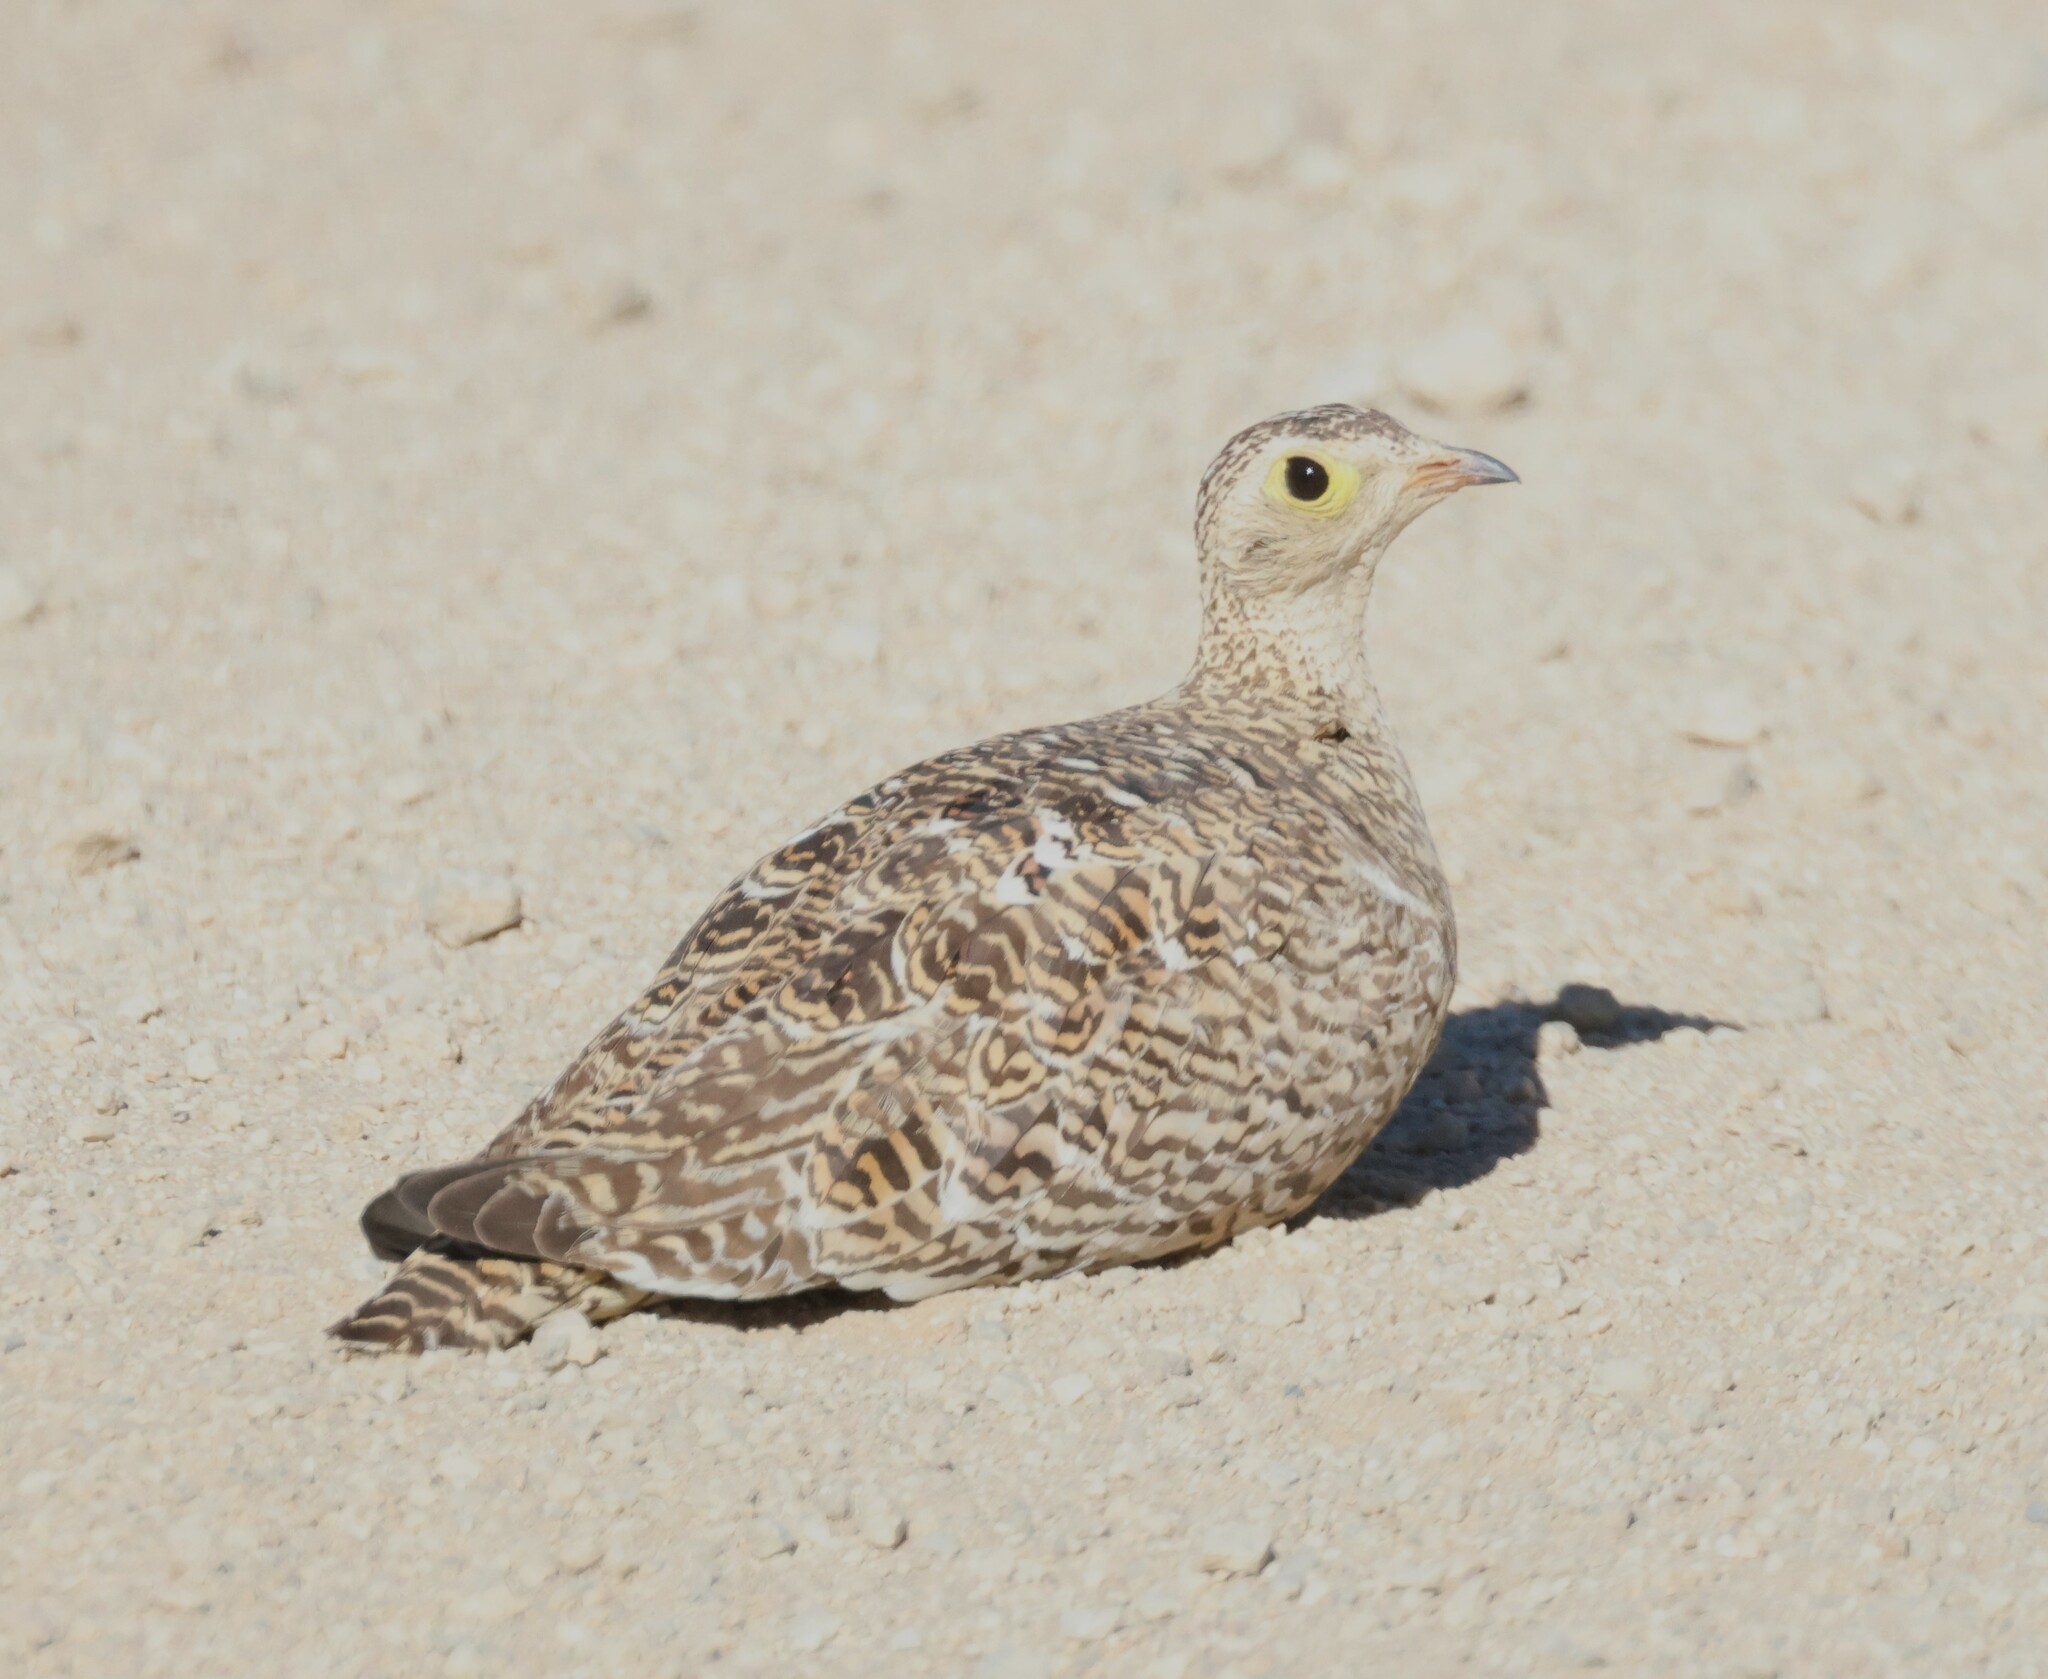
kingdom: Animalia
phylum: Chordata
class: Aves
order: Pteroclidiformes
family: Pteroclididae
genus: Pterocles
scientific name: Pterocles bicinctus
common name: Double-banded sandgrouse
